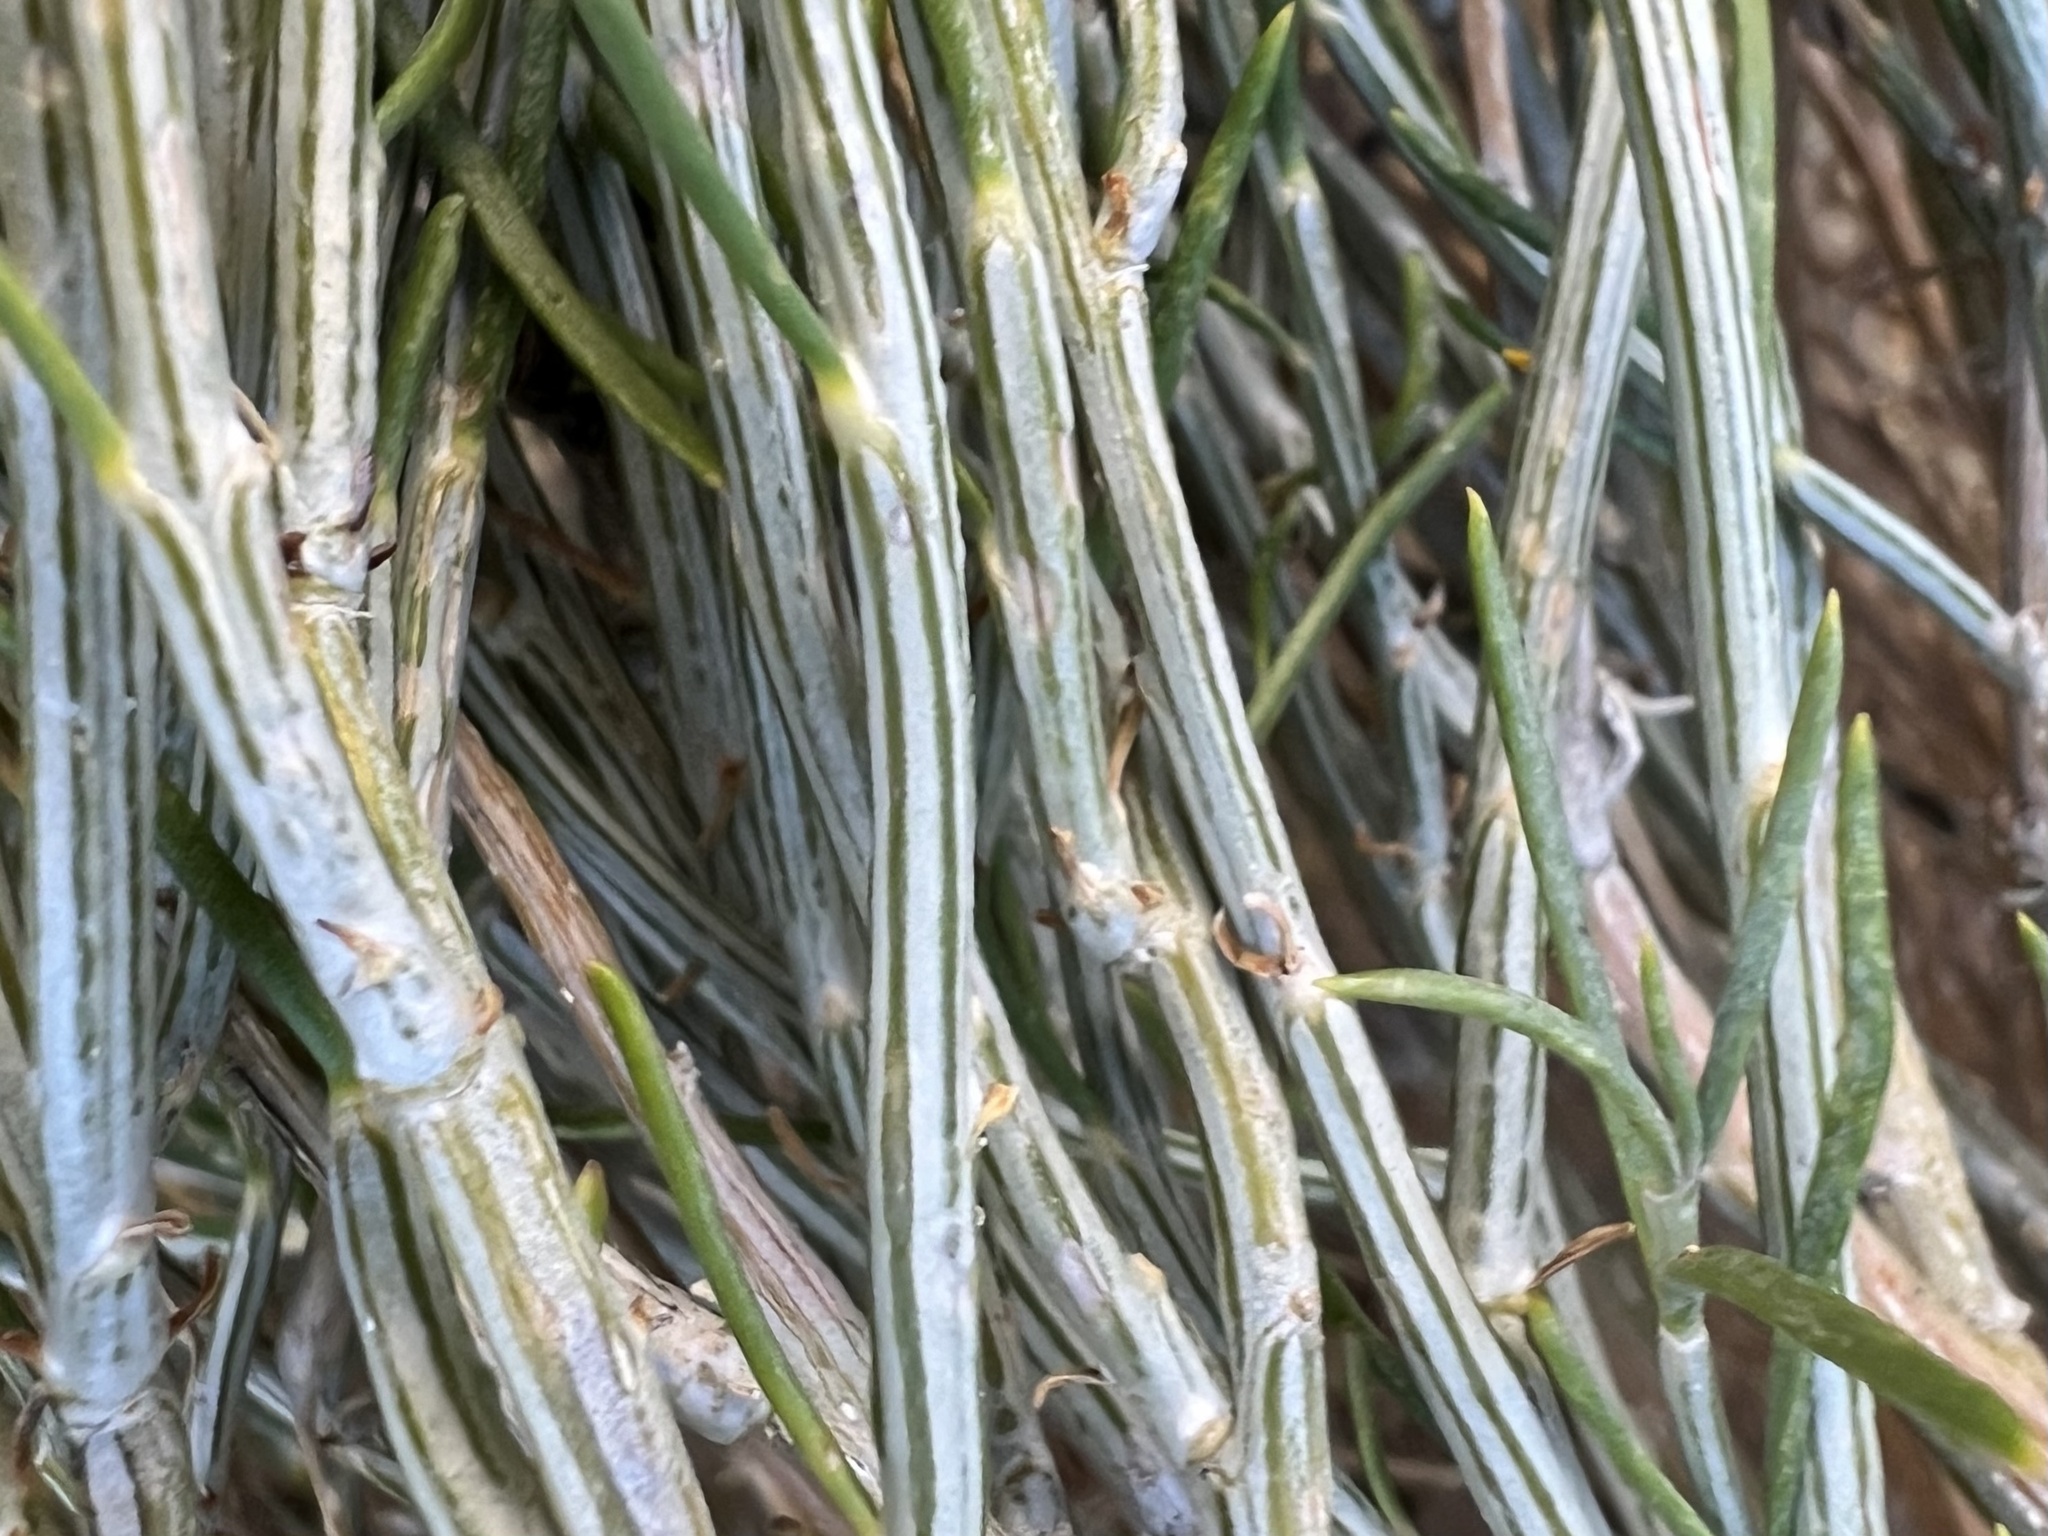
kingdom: Plantae
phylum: Tracheophyta
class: Magnoliopsida
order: Asterales
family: Asteraceae
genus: Lepidospartum
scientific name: Lepidospartum latisquamum
